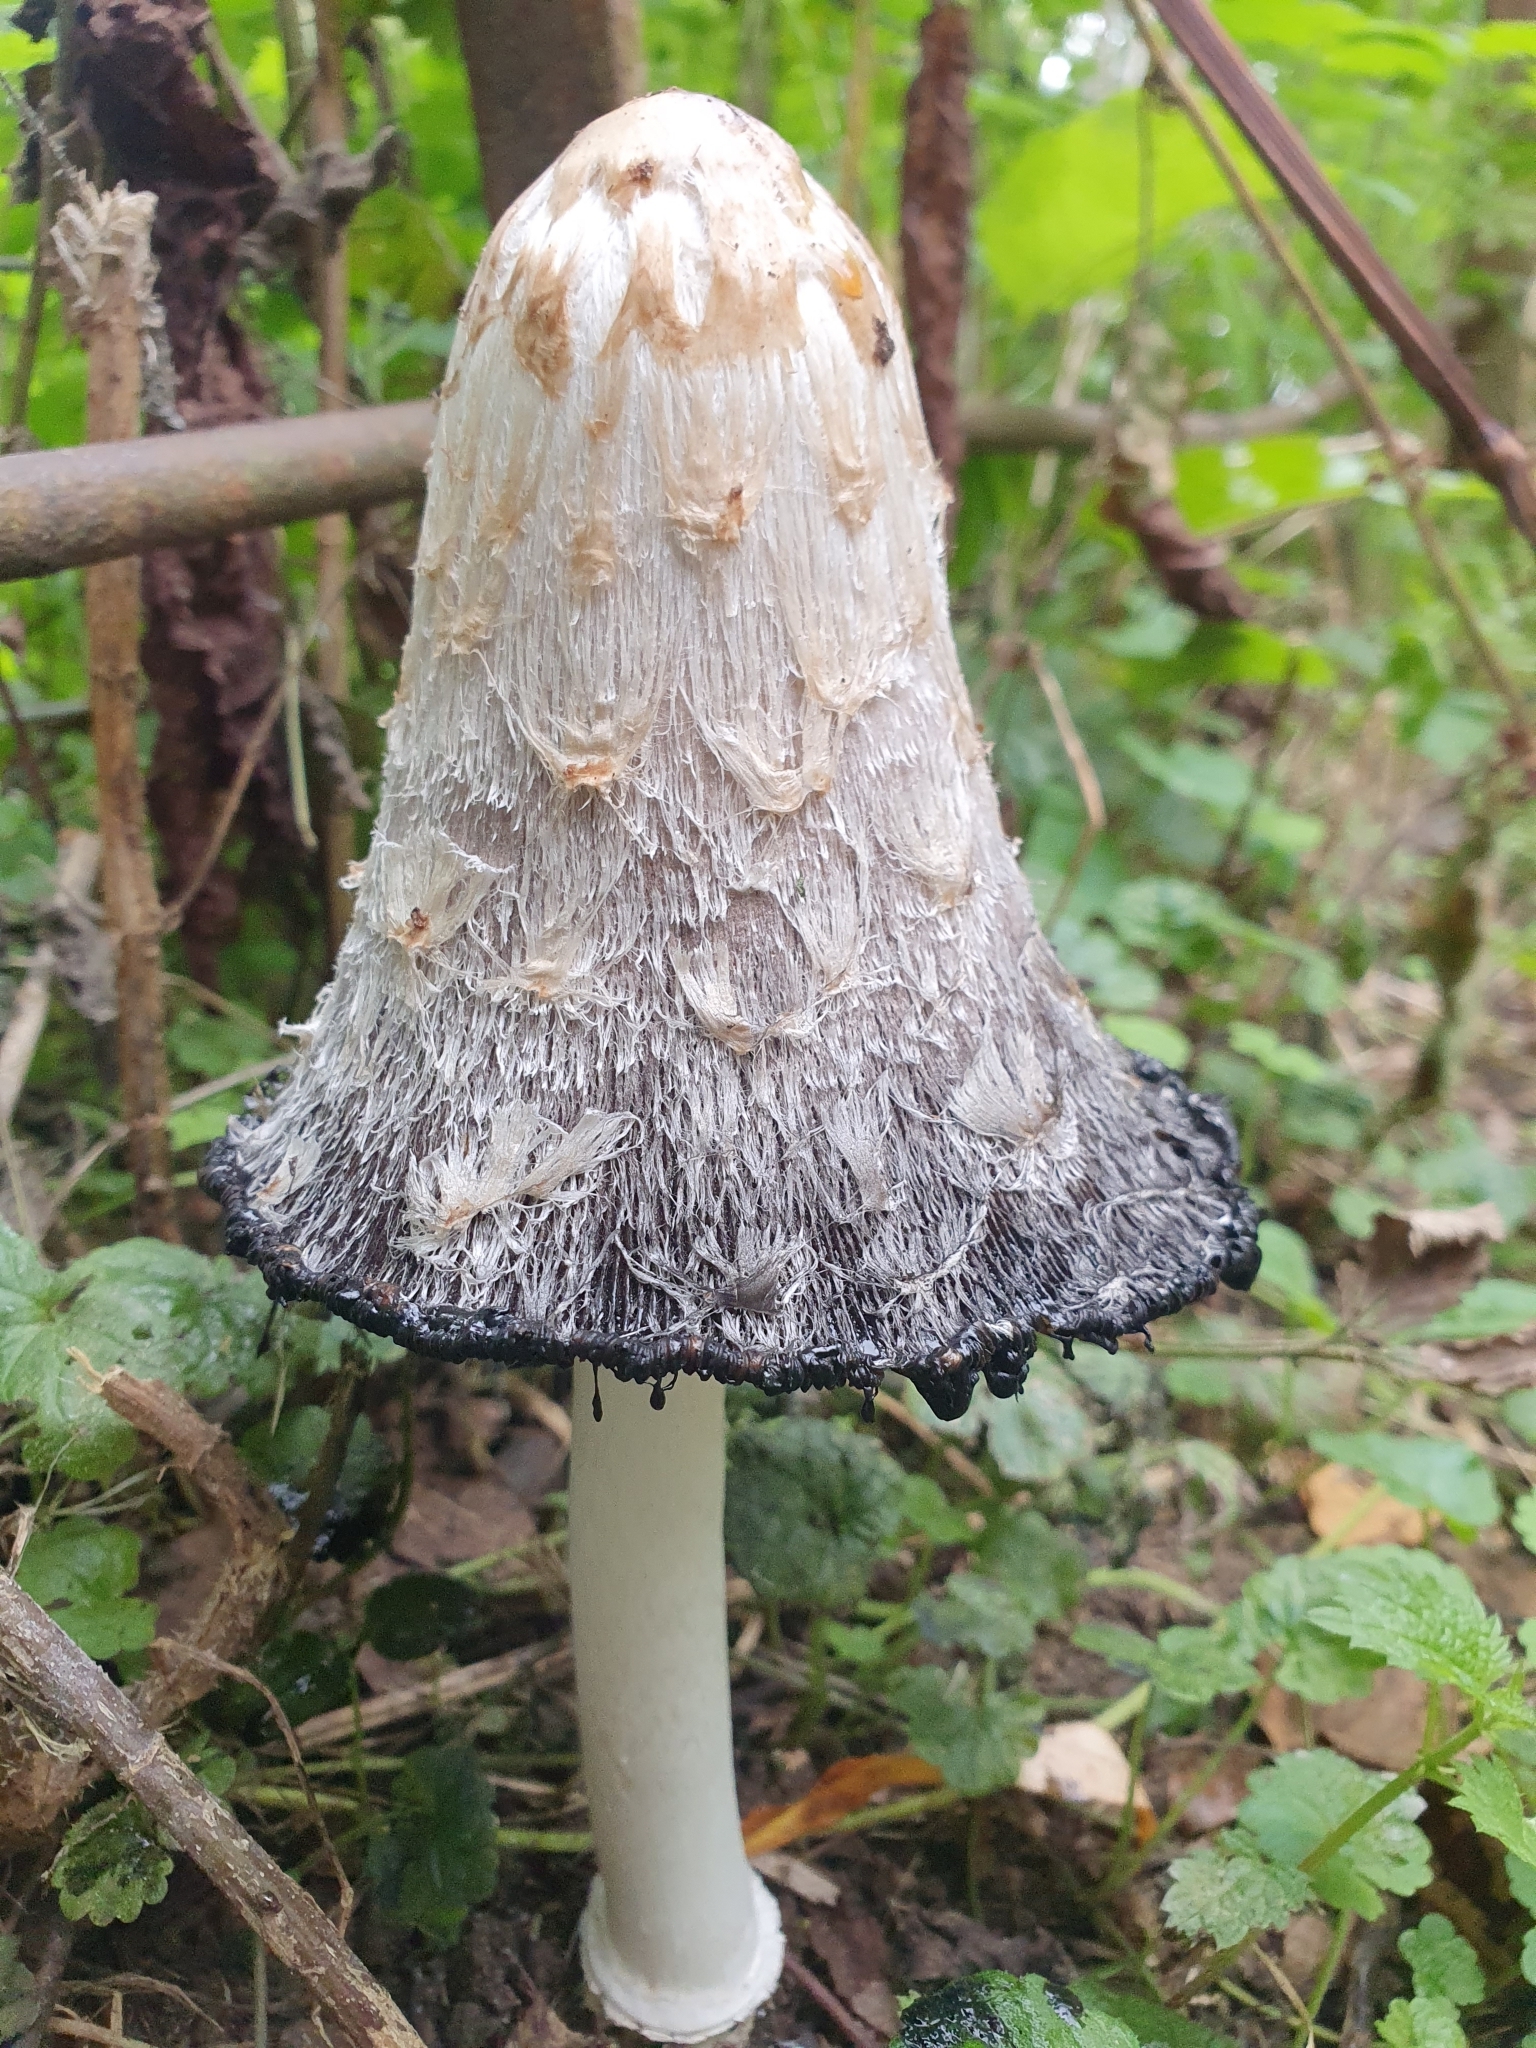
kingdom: Fungi
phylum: Basidiomycota
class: Agaricomycetes
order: Agaricales
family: Agaricaceae
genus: Coprinus
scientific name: Coprinus comatus
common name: Lawyer's wig
